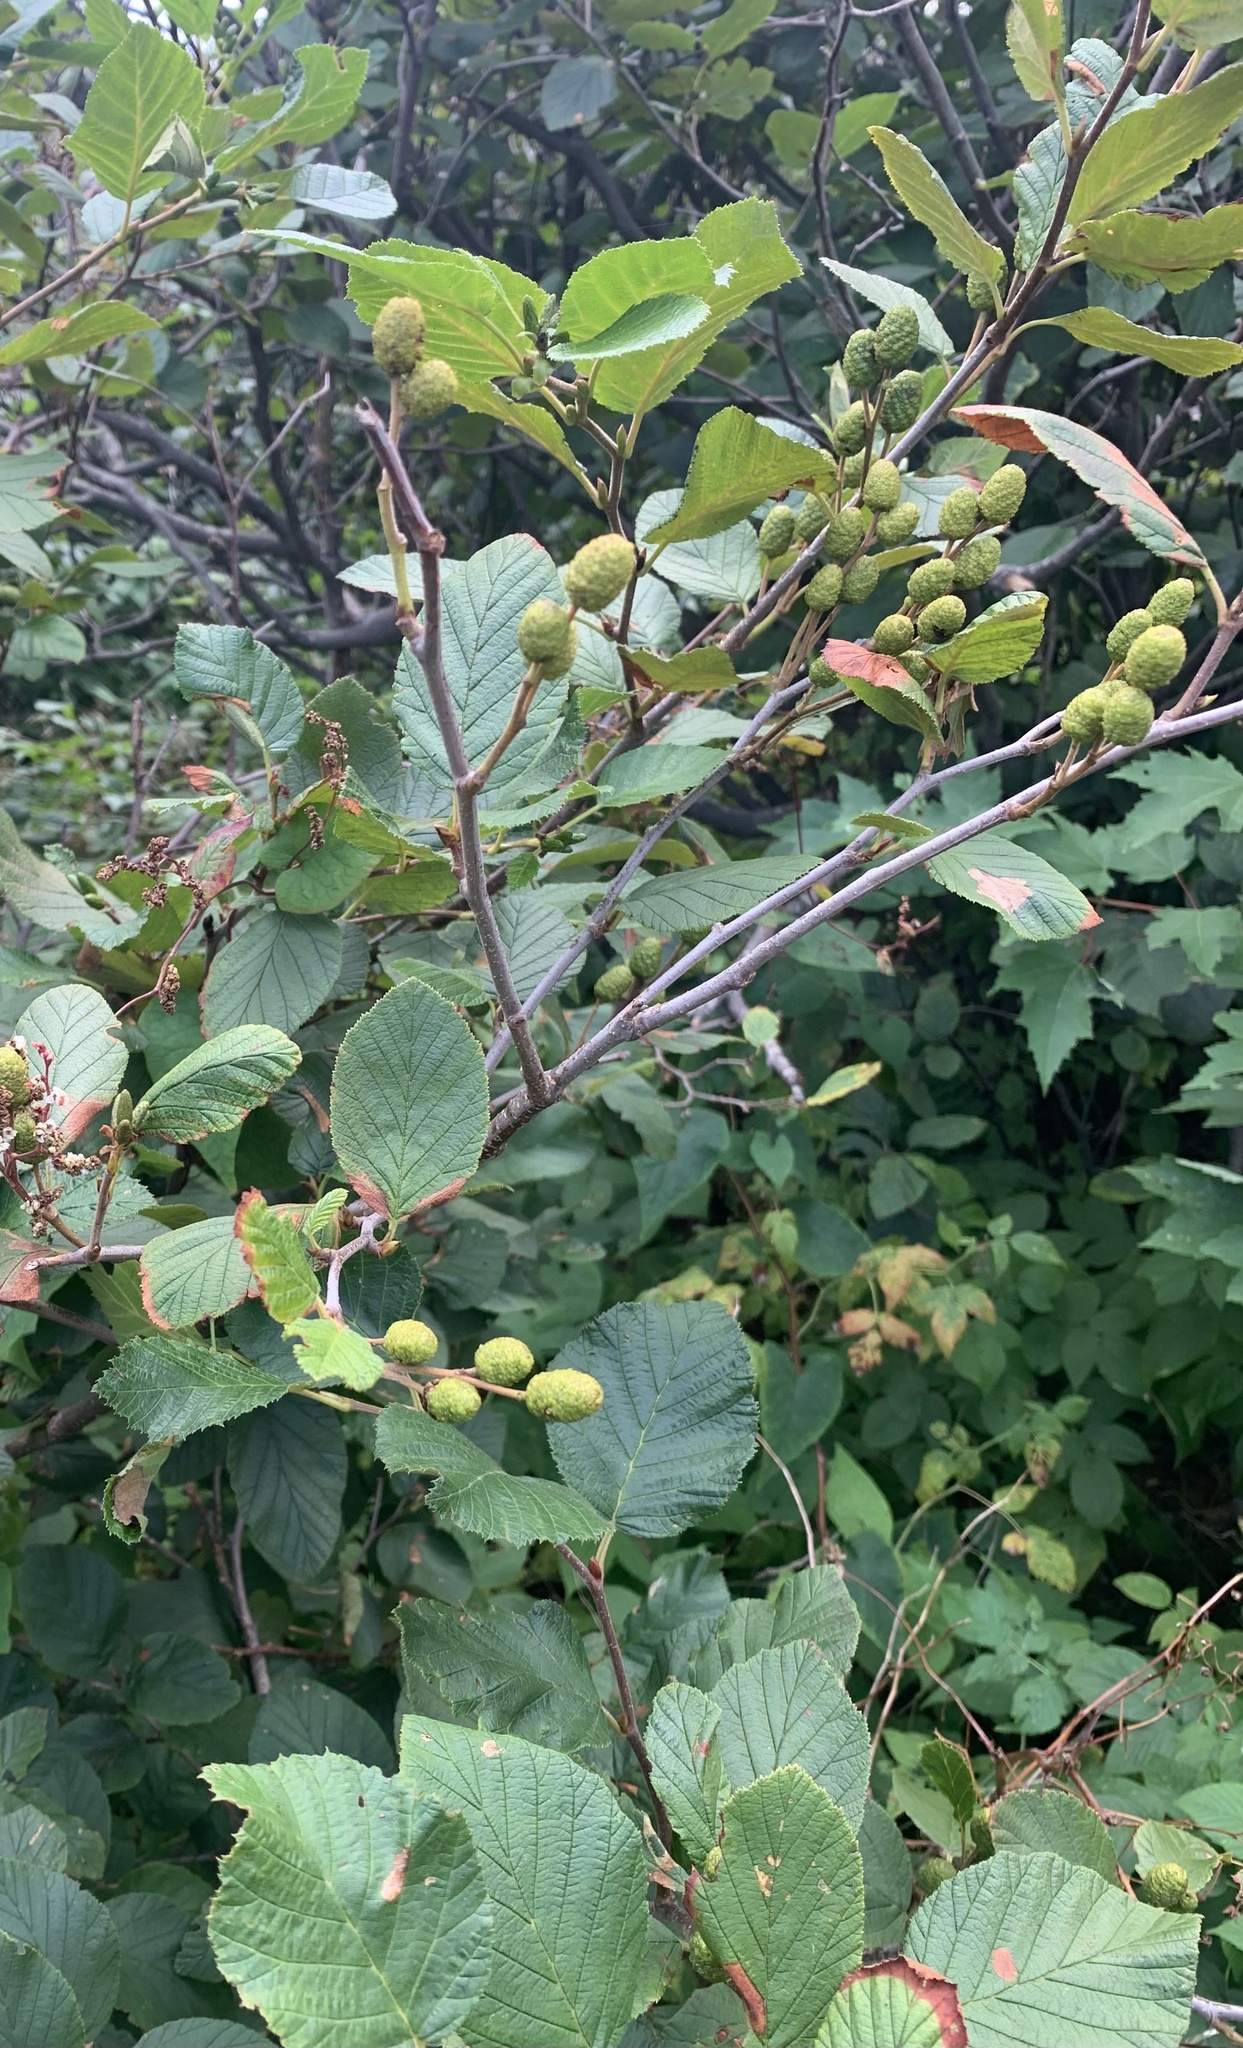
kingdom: Plantae
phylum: Tracheophyta
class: Magnoliopsida
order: Fagales
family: Betulaceae
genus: Alnus
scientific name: Alnus alnobetula
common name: Green alder
